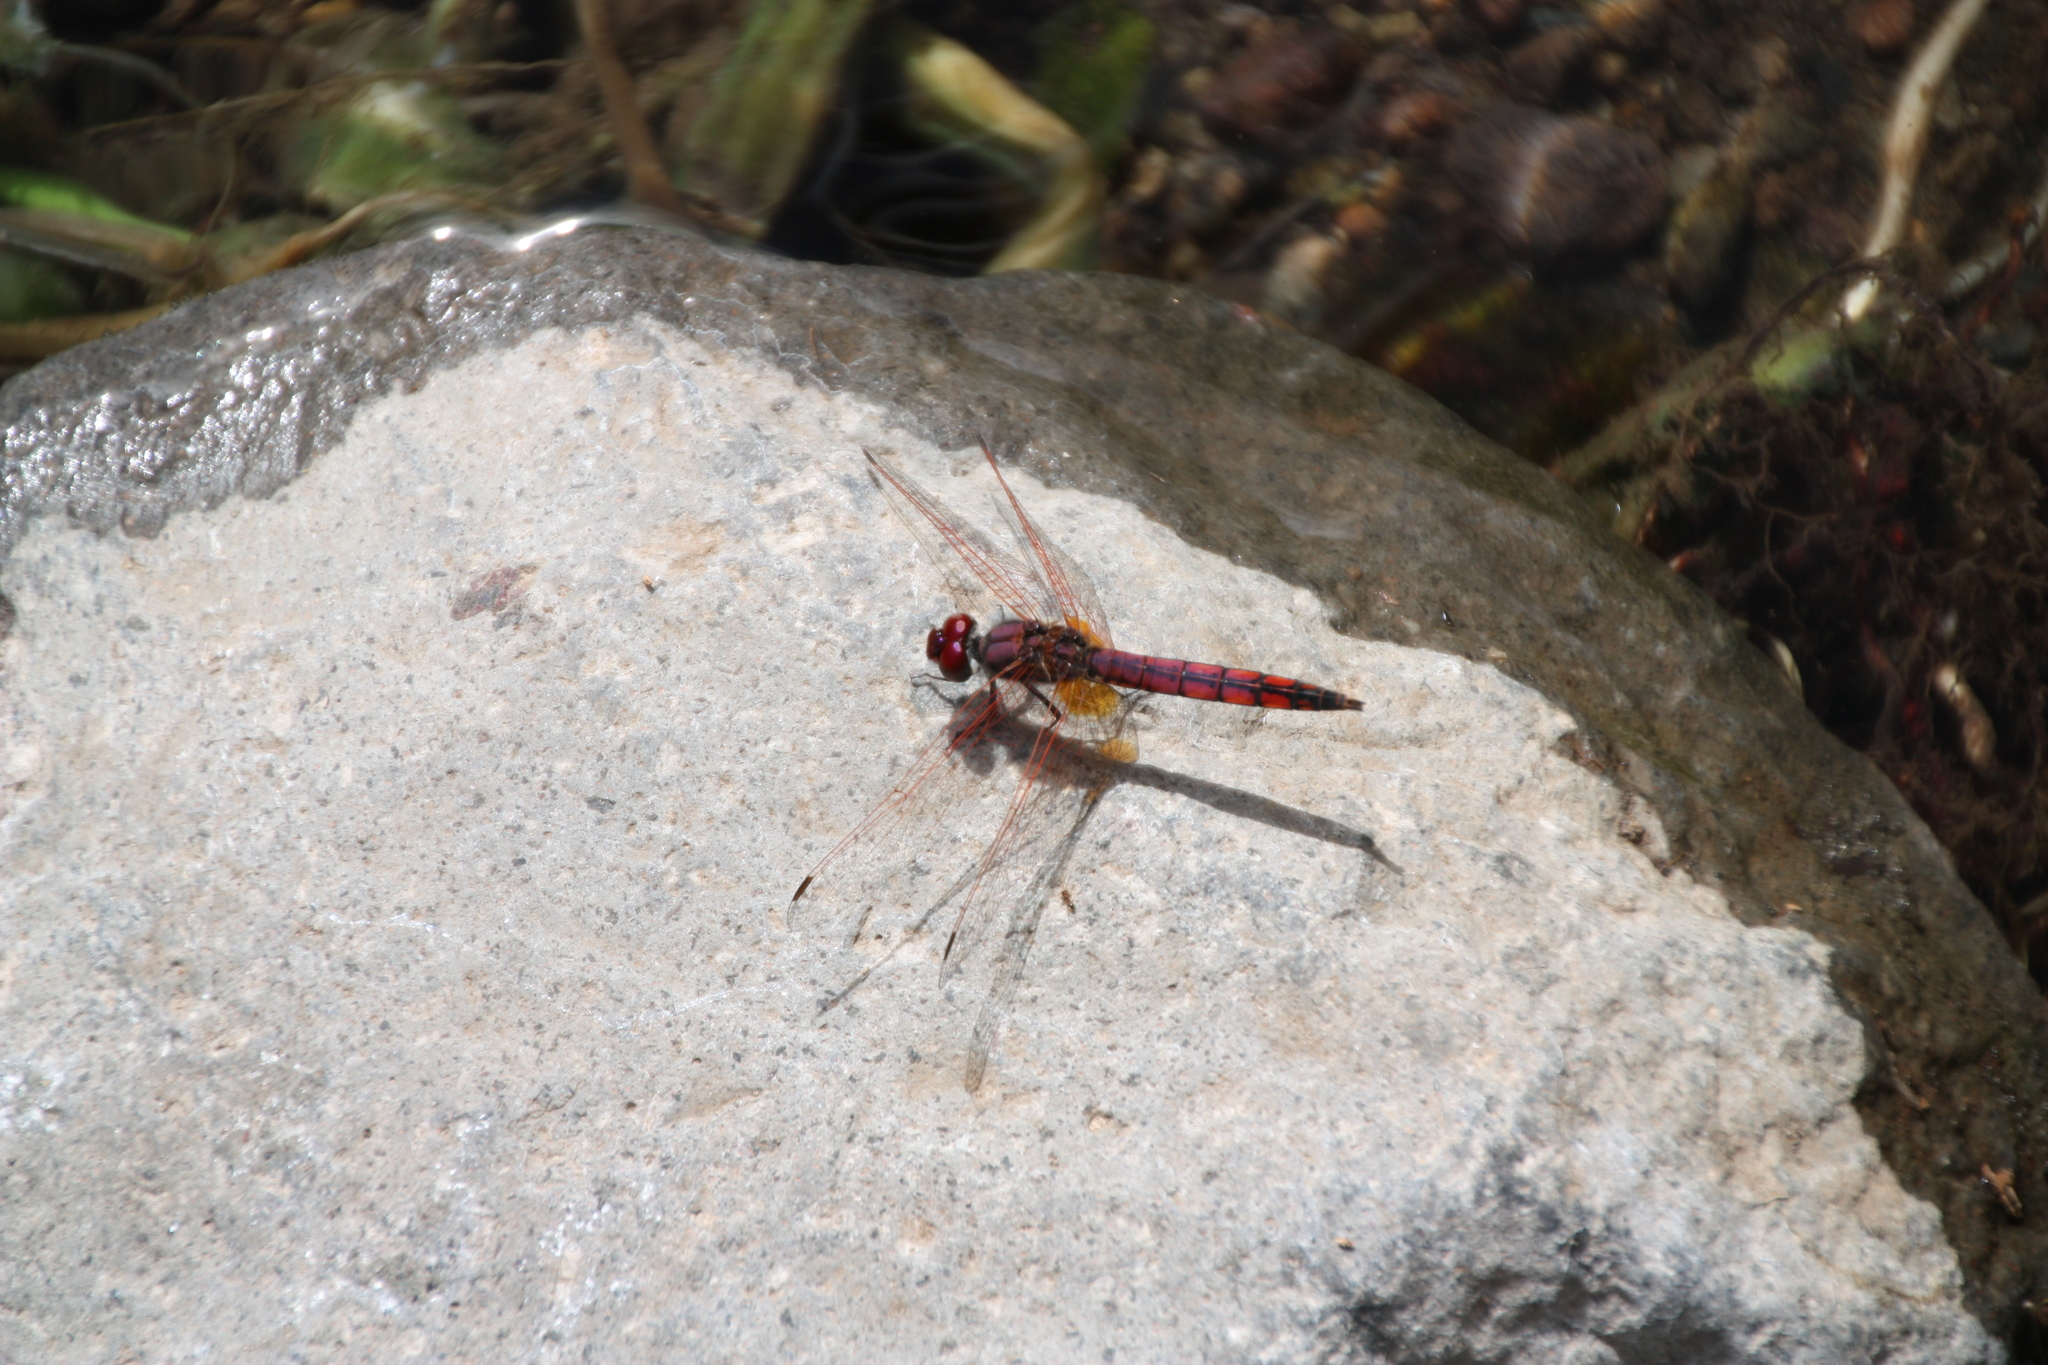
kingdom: Animalia
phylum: Arthropoda
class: Insecta
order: Odonata
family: Libellulidae
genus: Trithemis
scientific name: Trithemis annulata
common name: Violet dropwing
